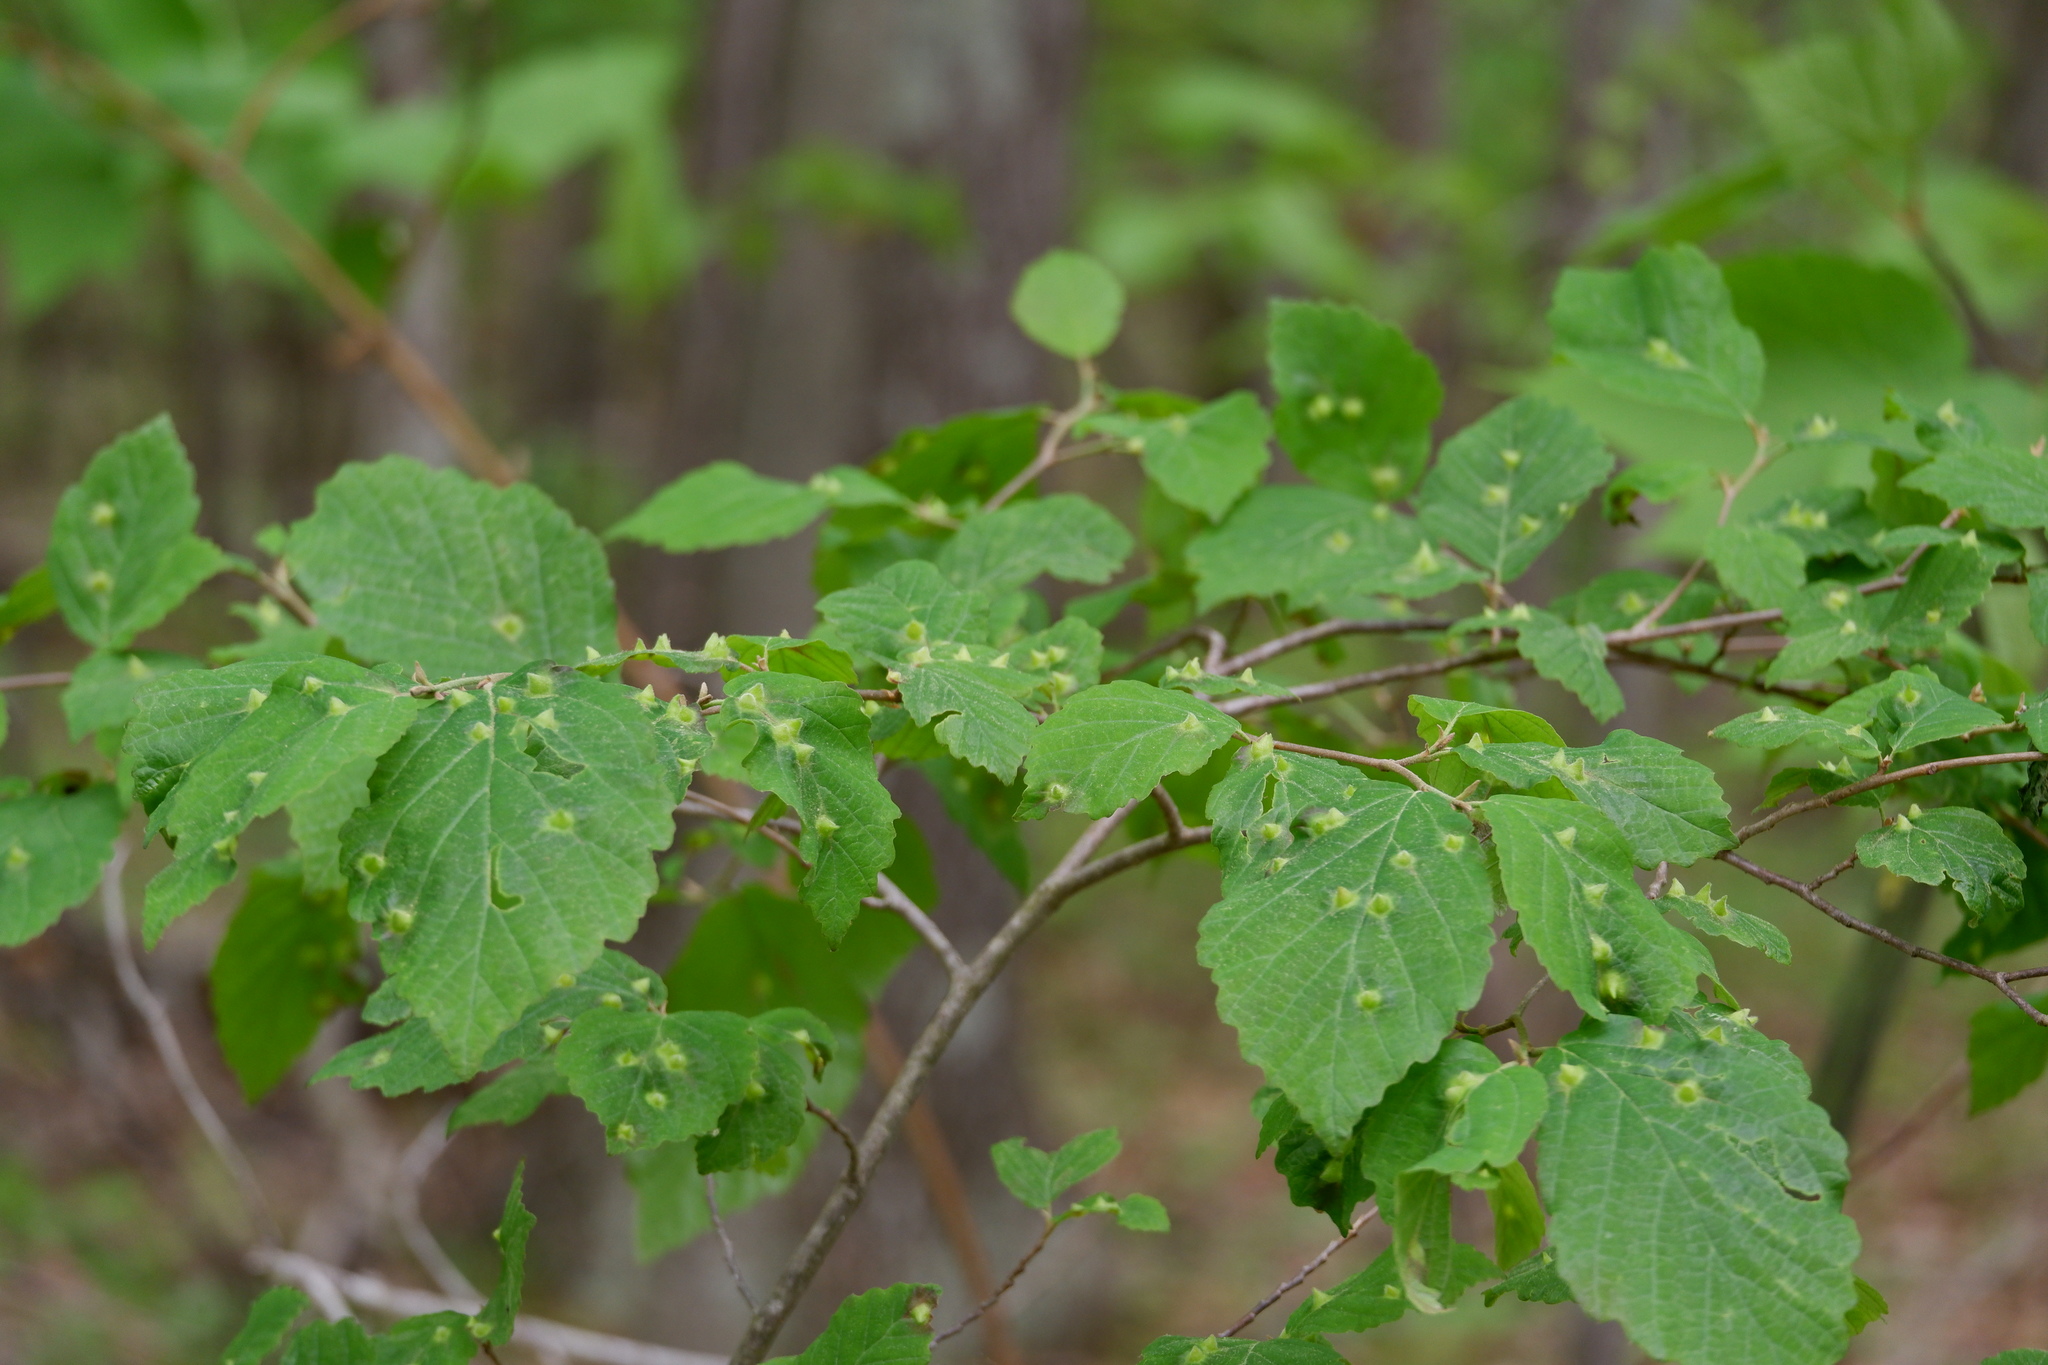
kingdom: Animalia
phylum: Arthropoda
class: Insecta
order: Hemiptera
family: Aphididae
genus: Hormaphis
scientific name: Hormaphis hamamelidis
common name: Witch-hazel cone gall aphid
